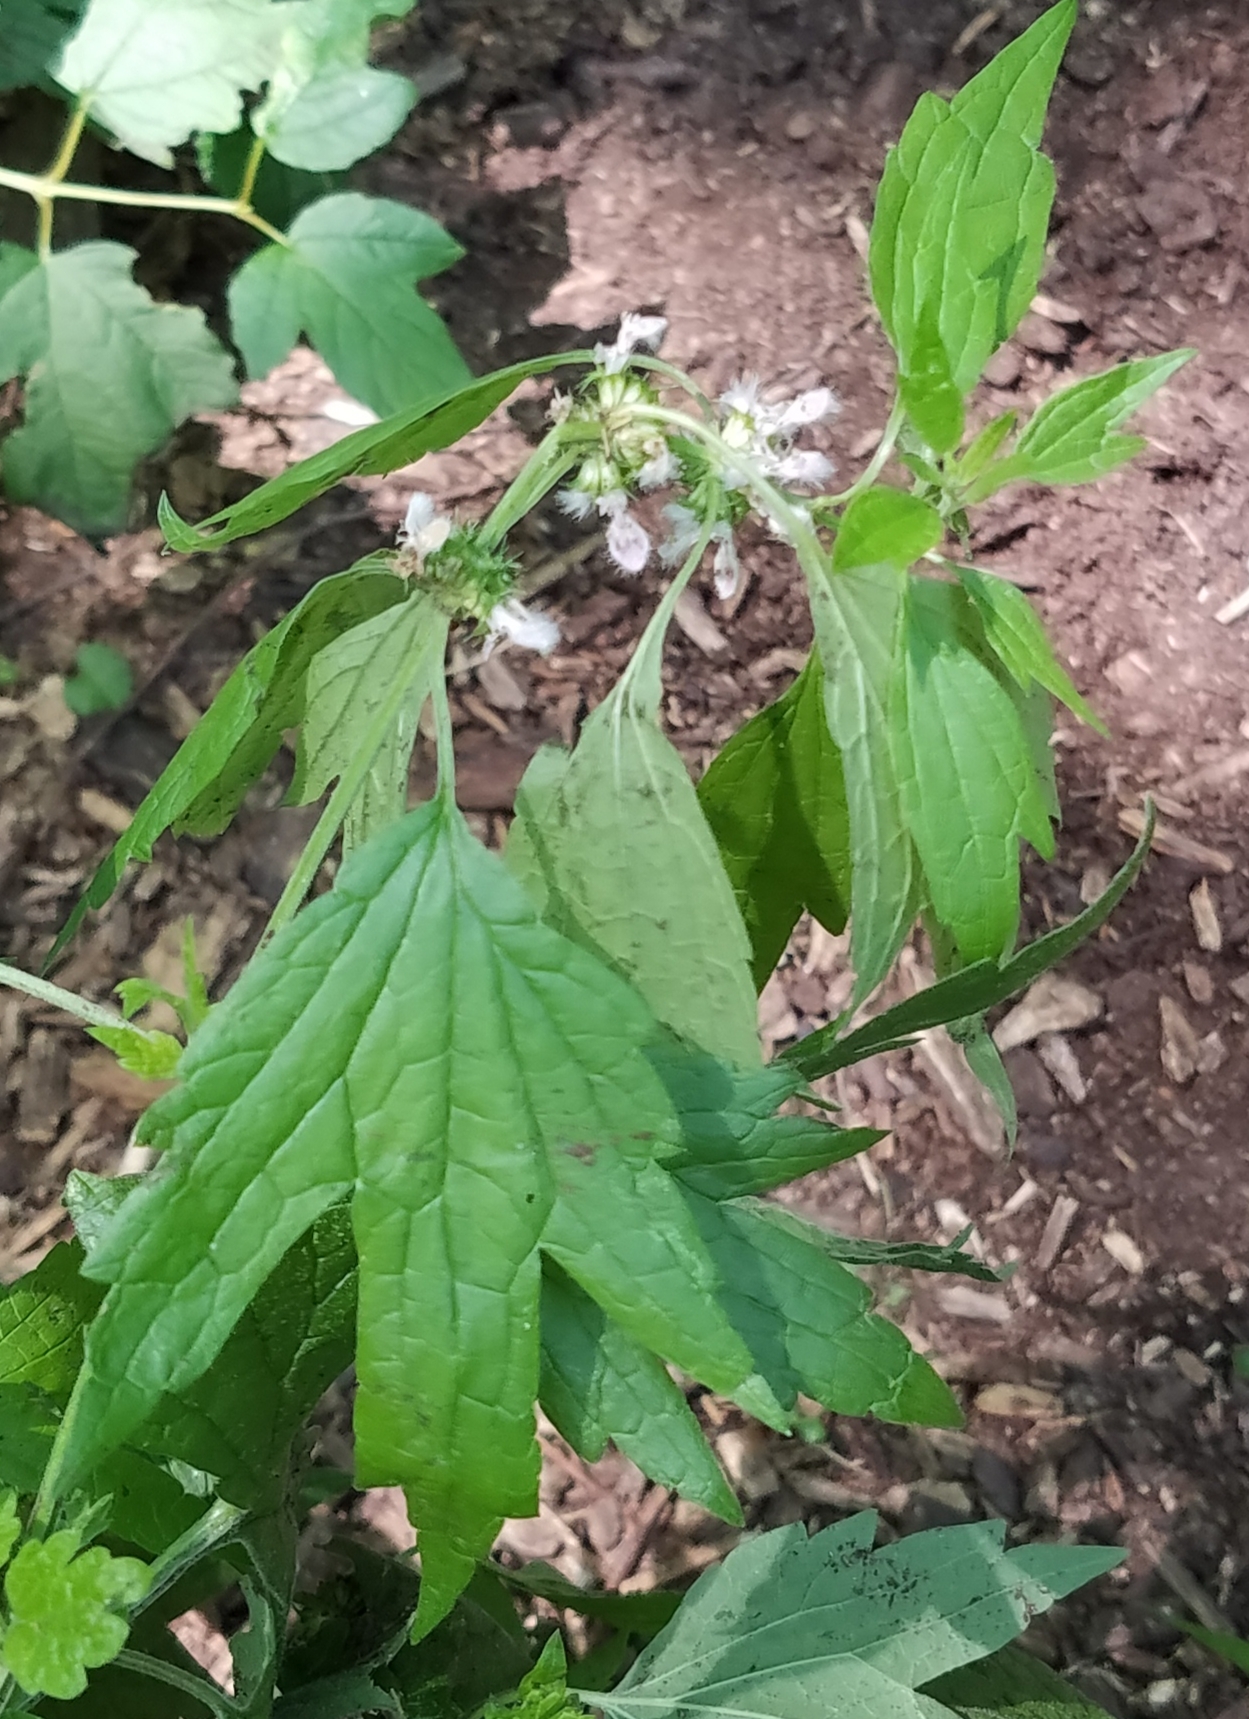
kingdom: Plantae
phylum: Tracheophyta
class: Magnoliopsida
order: Lamiales
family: Lamiaceae
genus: Leonurus
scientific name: Leonurus cardiaca
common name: Motherwort
